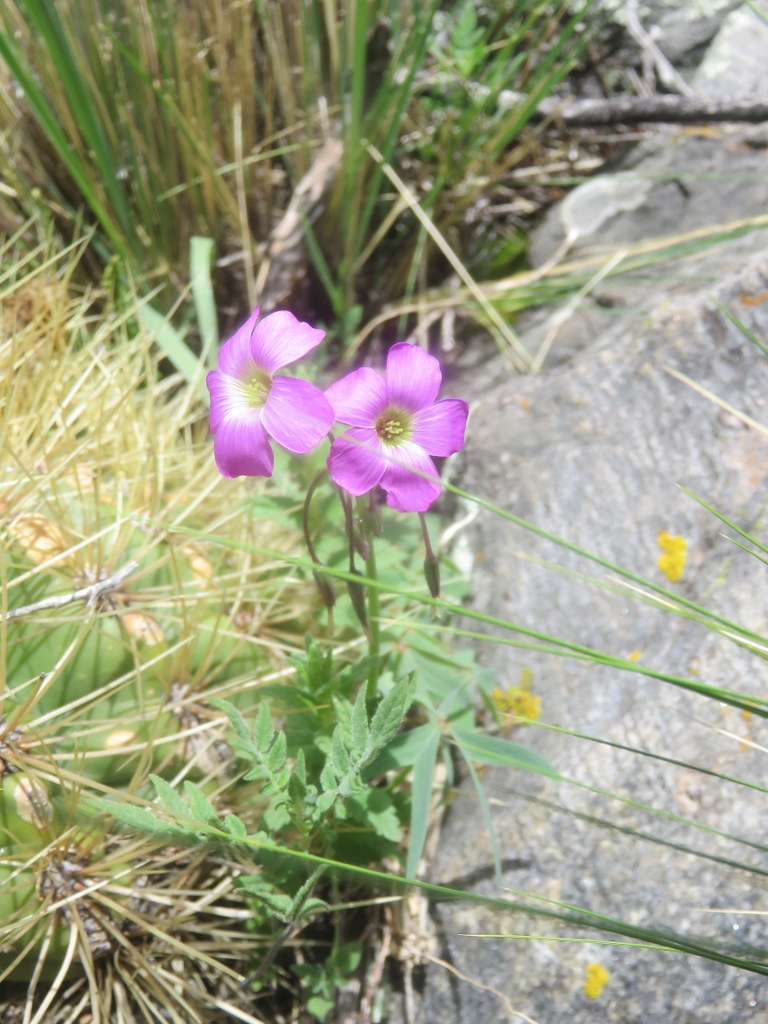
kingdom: Plantae
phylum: Tracheophyta
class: Magnoliopsida
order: Oxalidales
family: Oxalidaceae
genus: Oxalis
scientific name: Oxalis argentina
